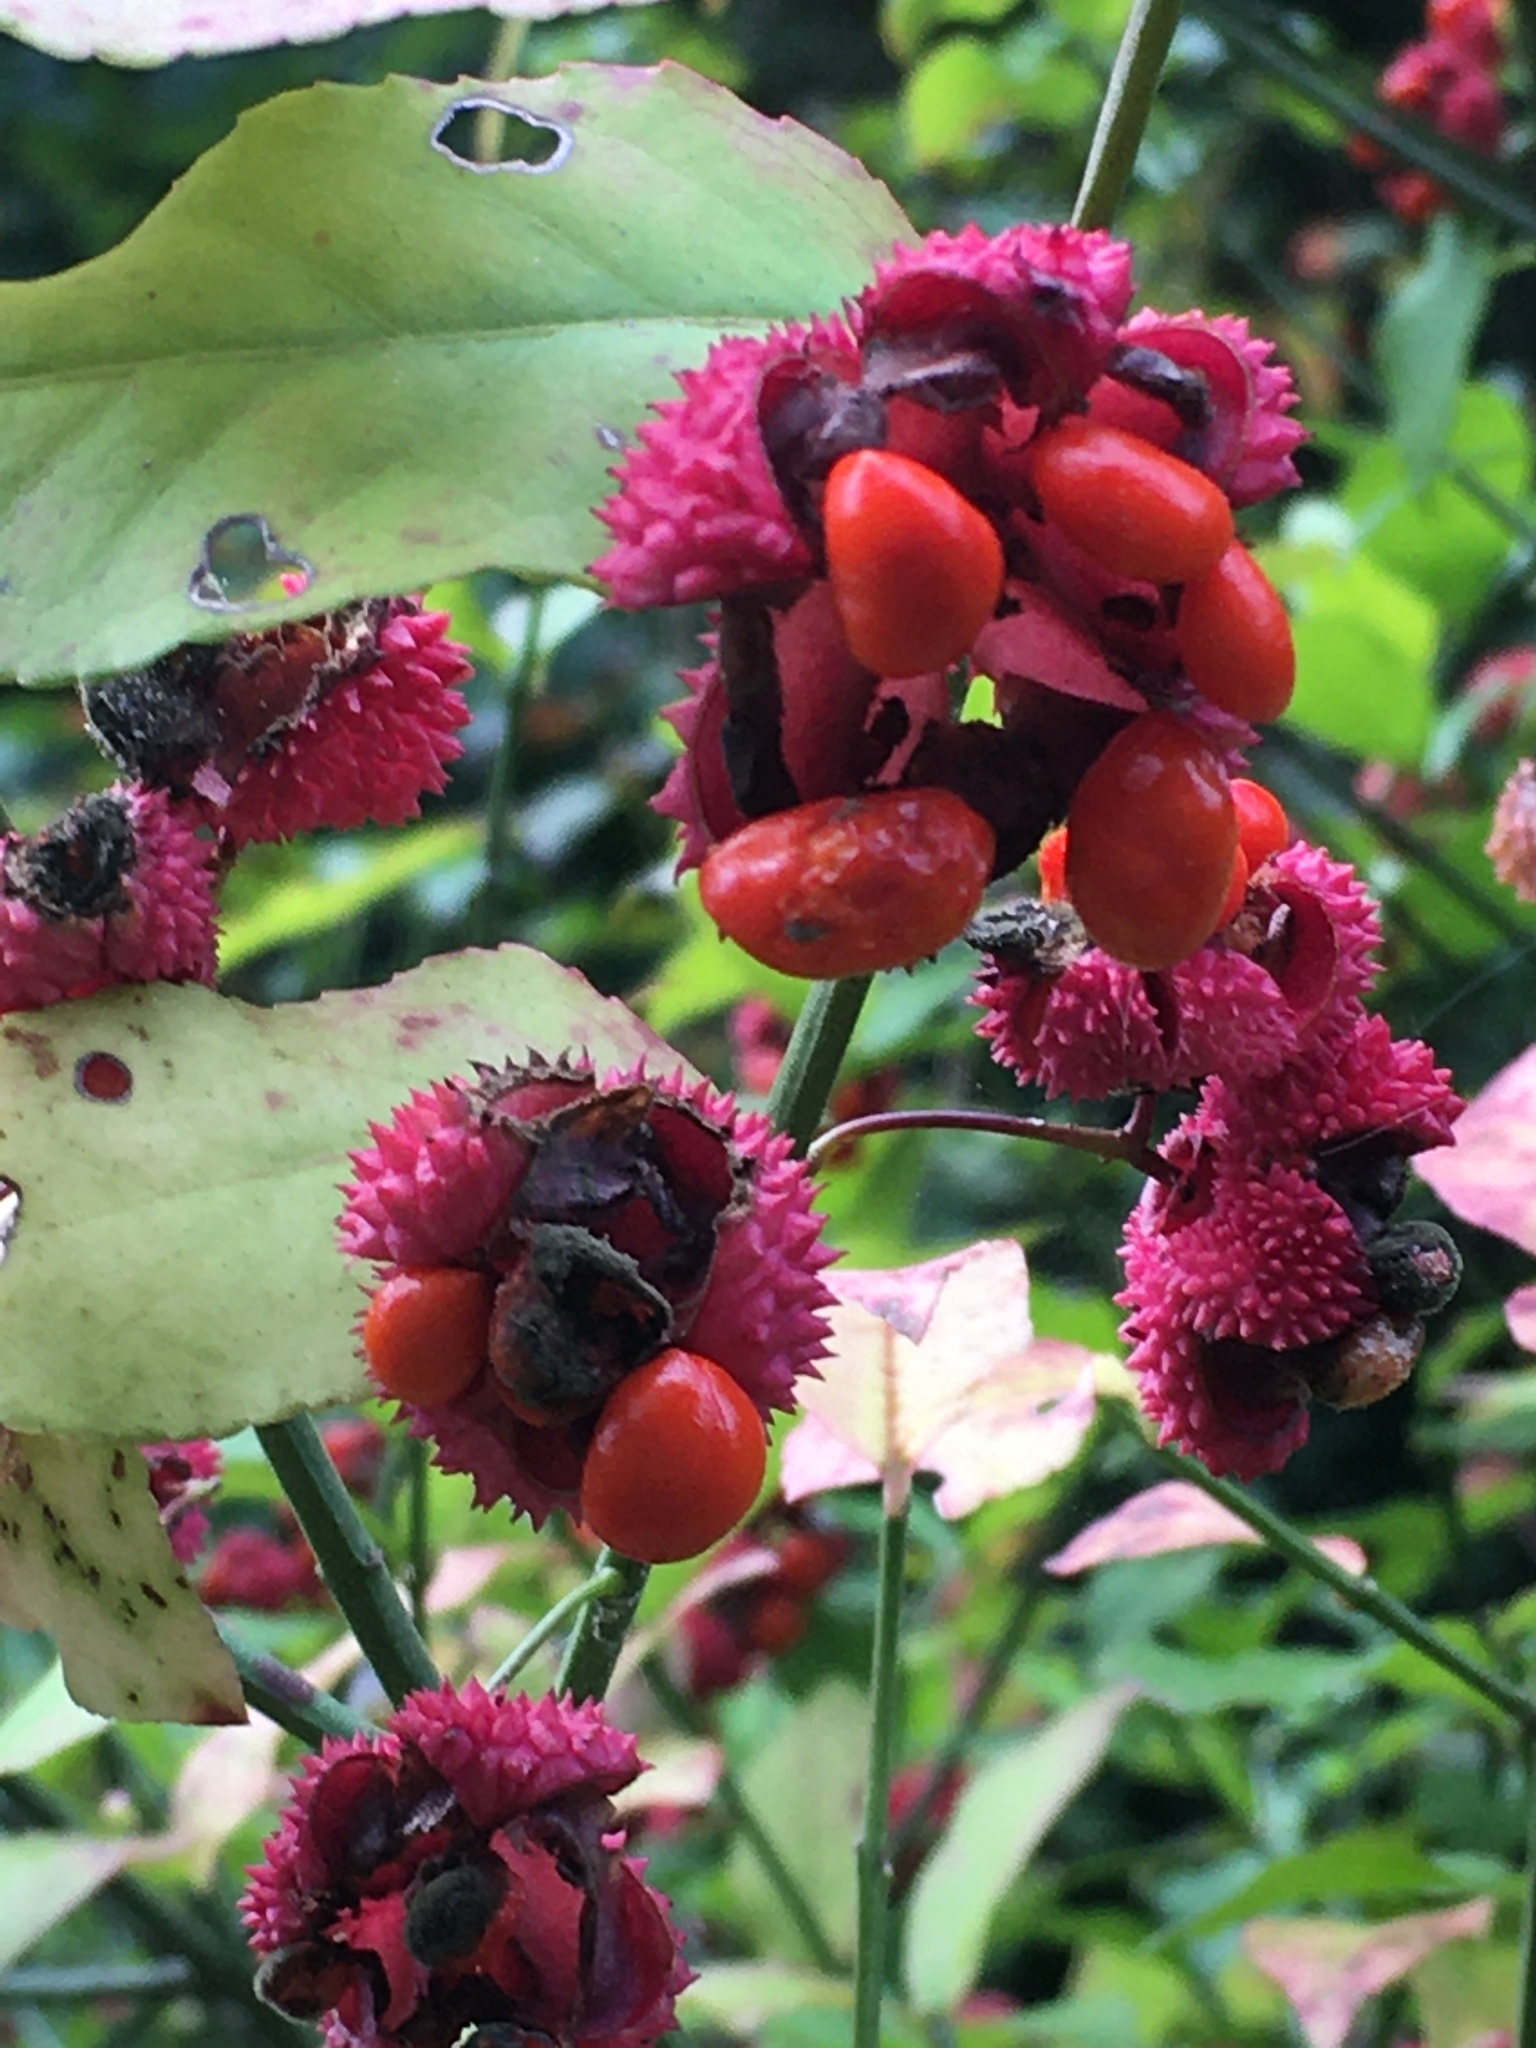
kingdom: Plantae
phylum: Tracheophyta
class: Magnoliopsida
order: Celastrales
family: Celastraceae
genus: Euonymus
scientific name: Euonymus americanus
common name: Bursting-heart
